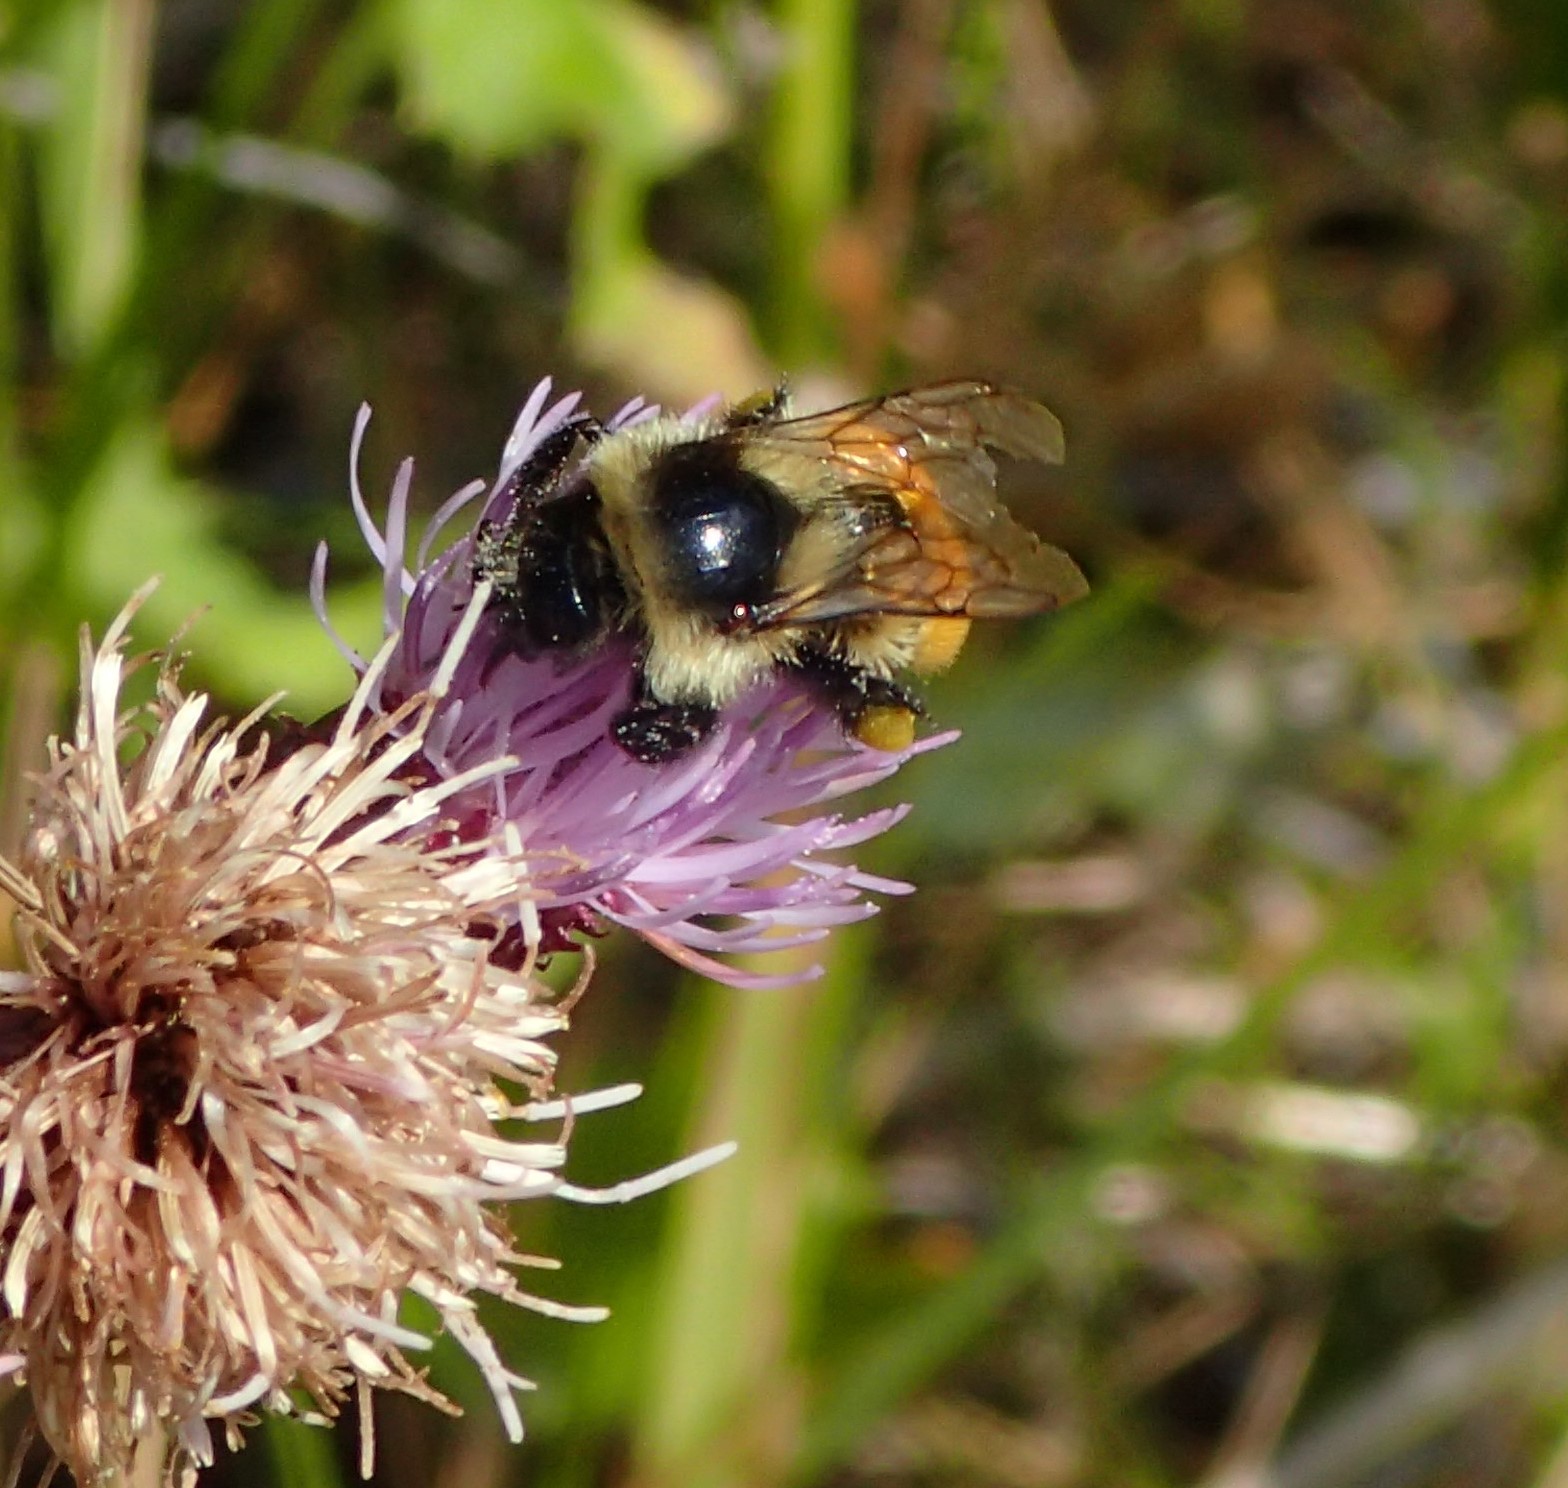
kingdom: Animalia
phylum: Arthropoda
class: Insecta
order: Hymenoptera
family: Apidae
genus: Bombus
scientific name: Bombus ternarius
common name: Tri-colored bumble bee
